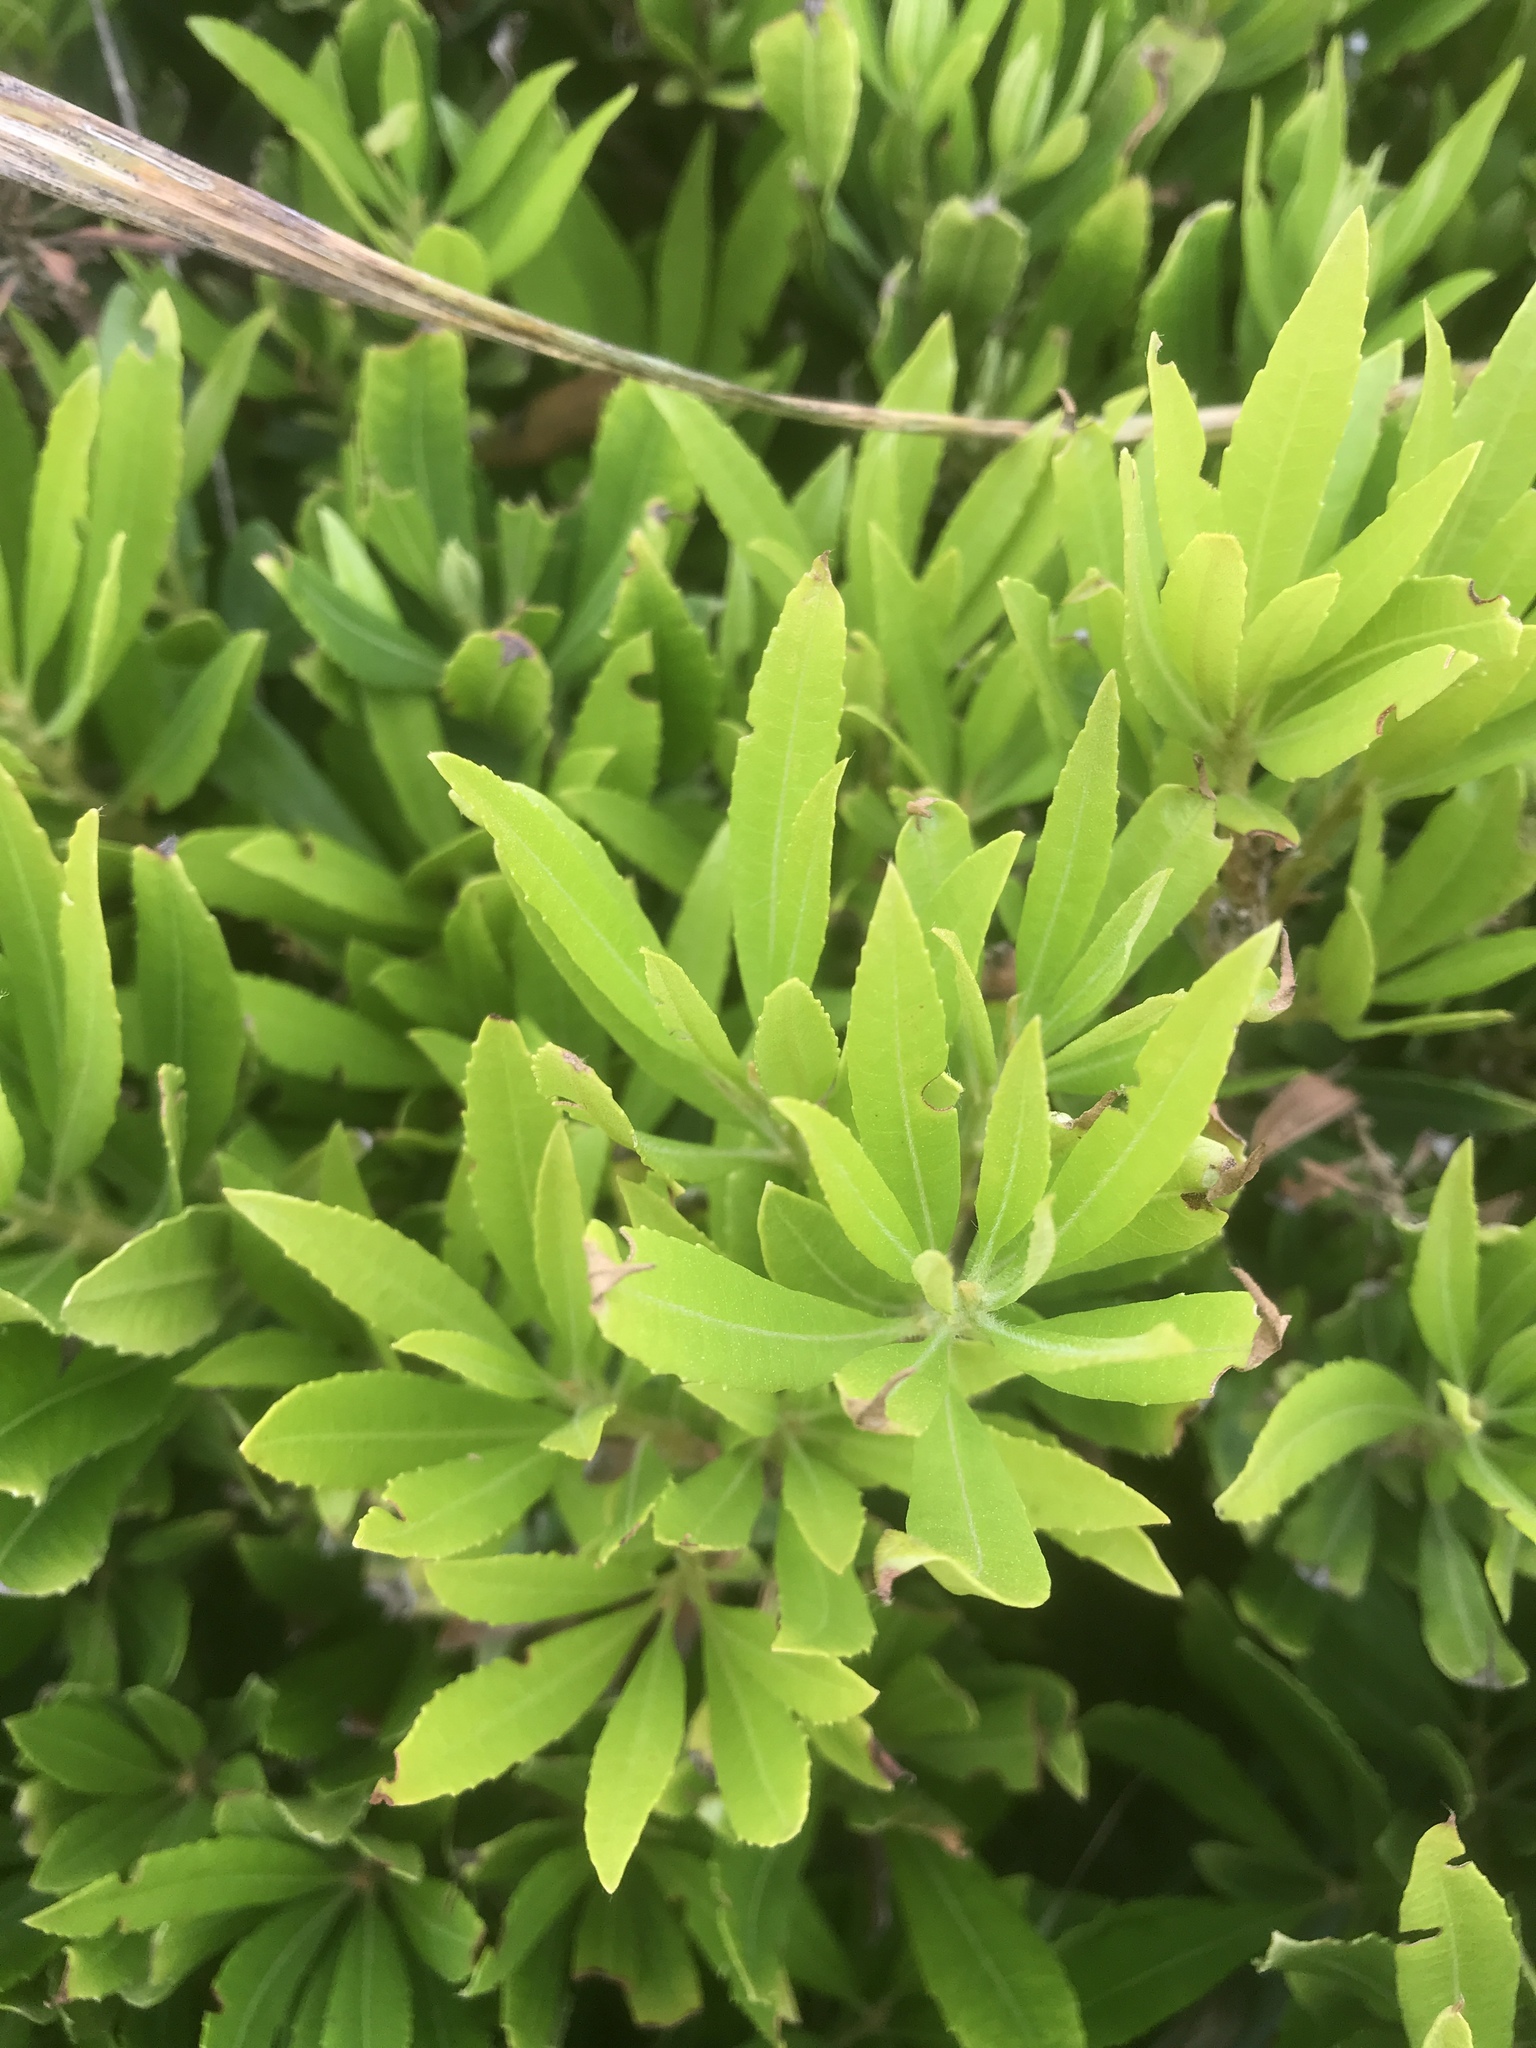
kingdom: Plantae
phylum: Tracheophyta
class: Magnoliopsida
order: Fagales
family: Myricaceae
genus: Morella
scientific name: Morella californica
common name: California wax-myrtle
